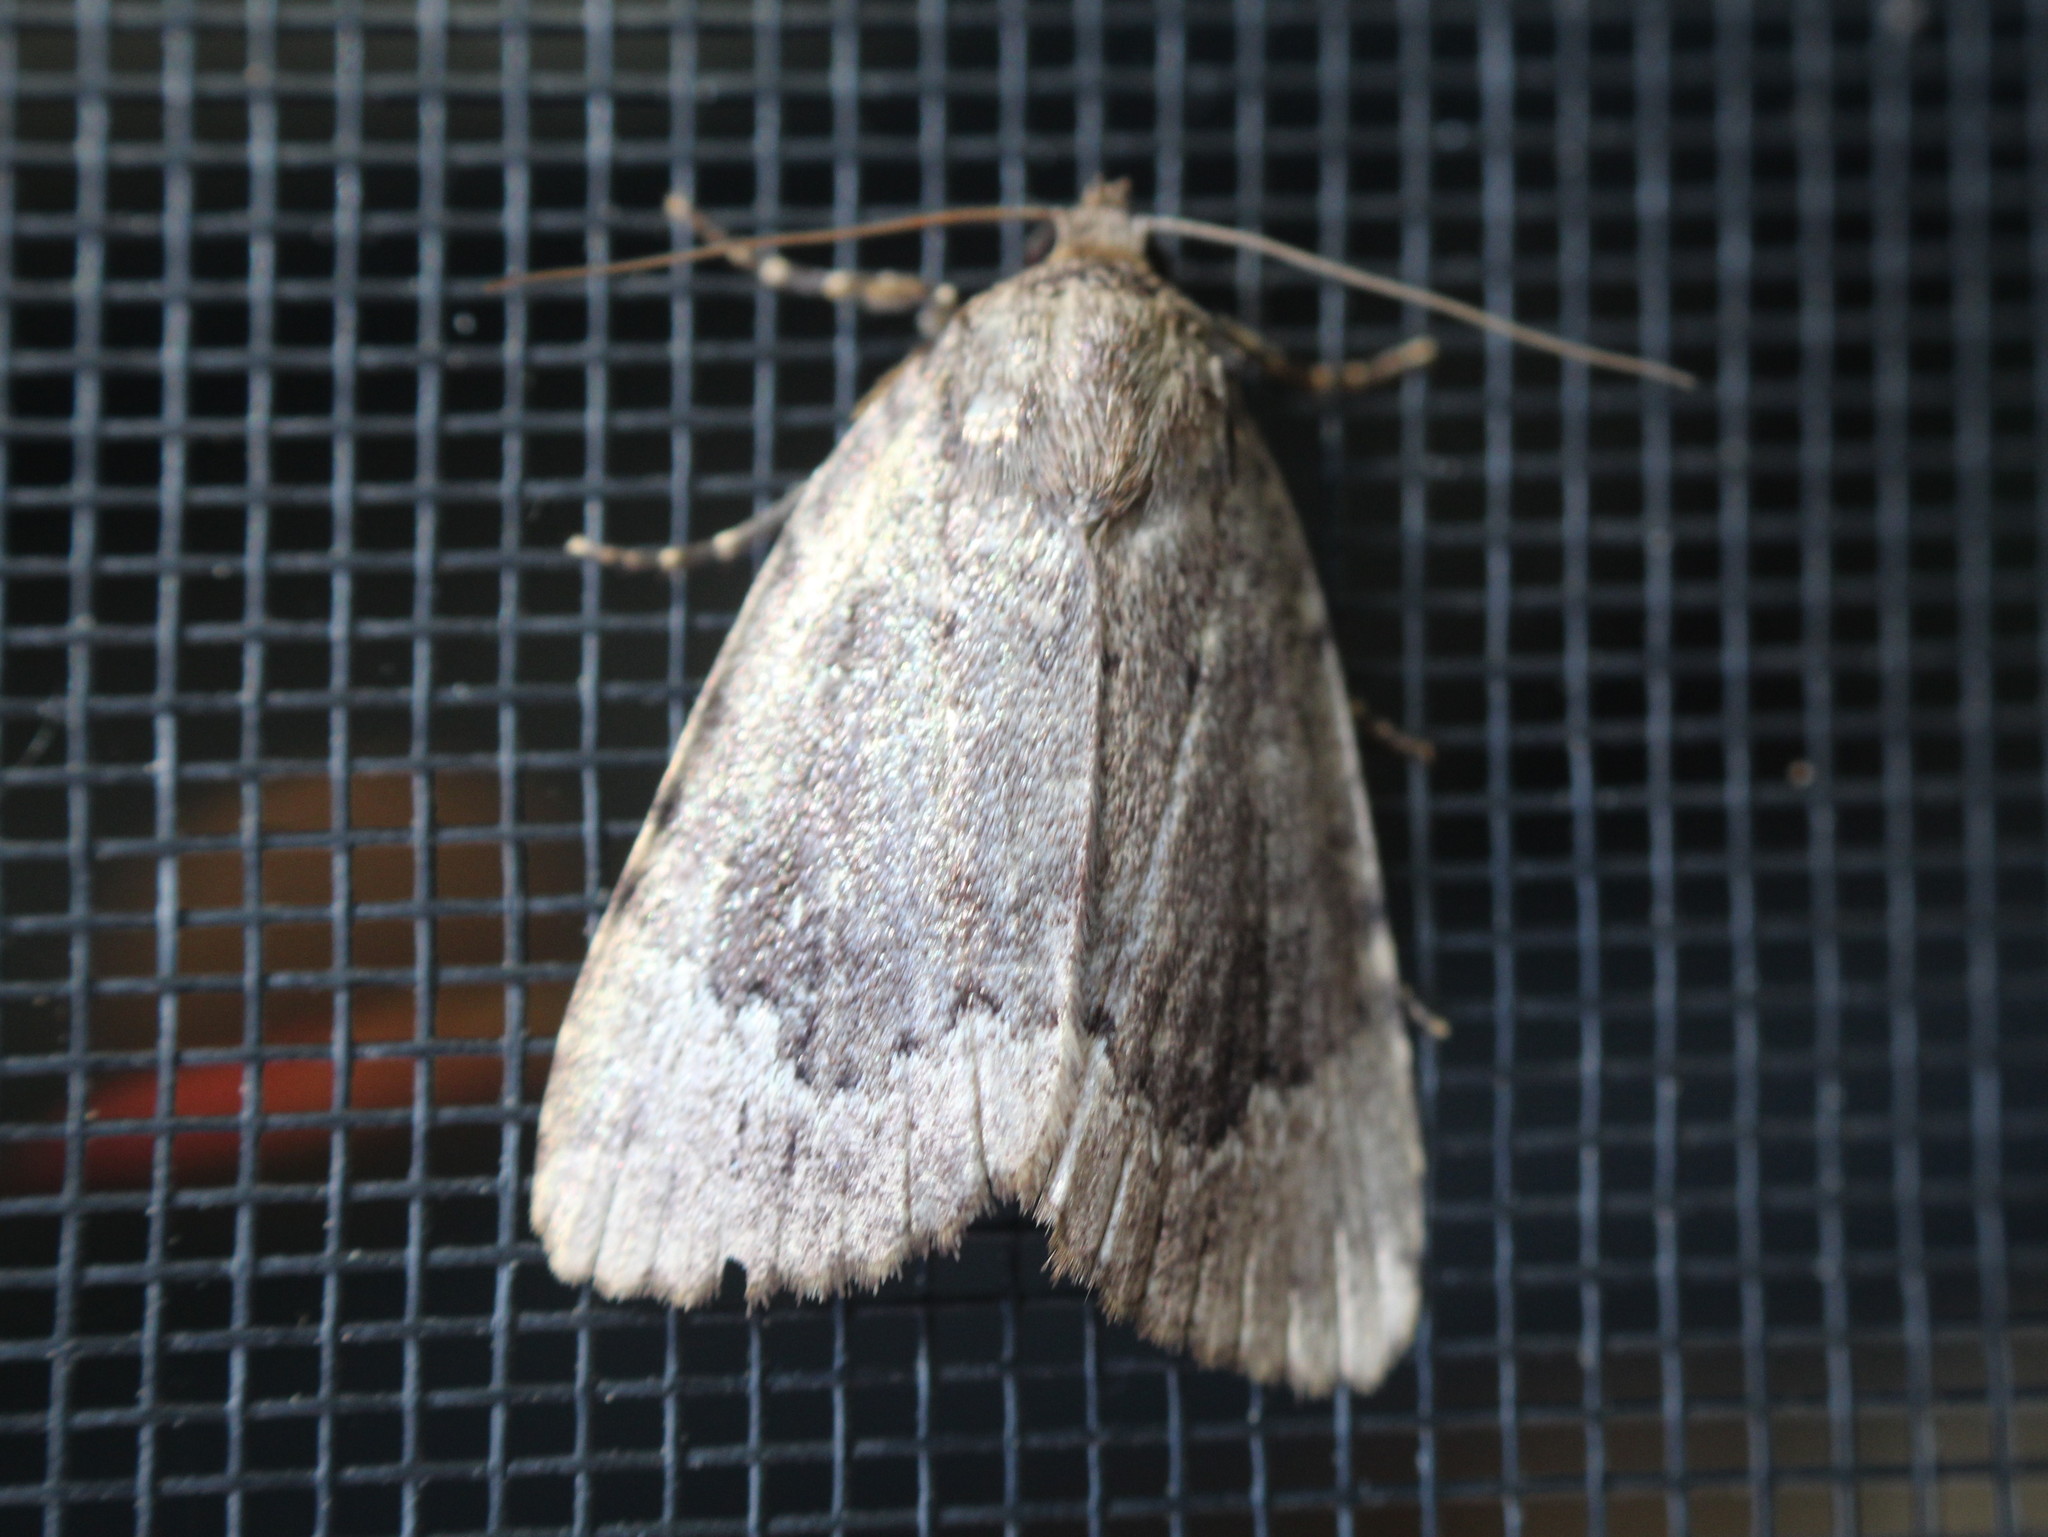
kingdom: Animalia
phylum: Arthropoda
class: Insecta
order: Lepidoptera
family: Noctuidae
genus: Amphipyra
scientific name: Amphipyra pyramidoides
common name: American copper underwing
